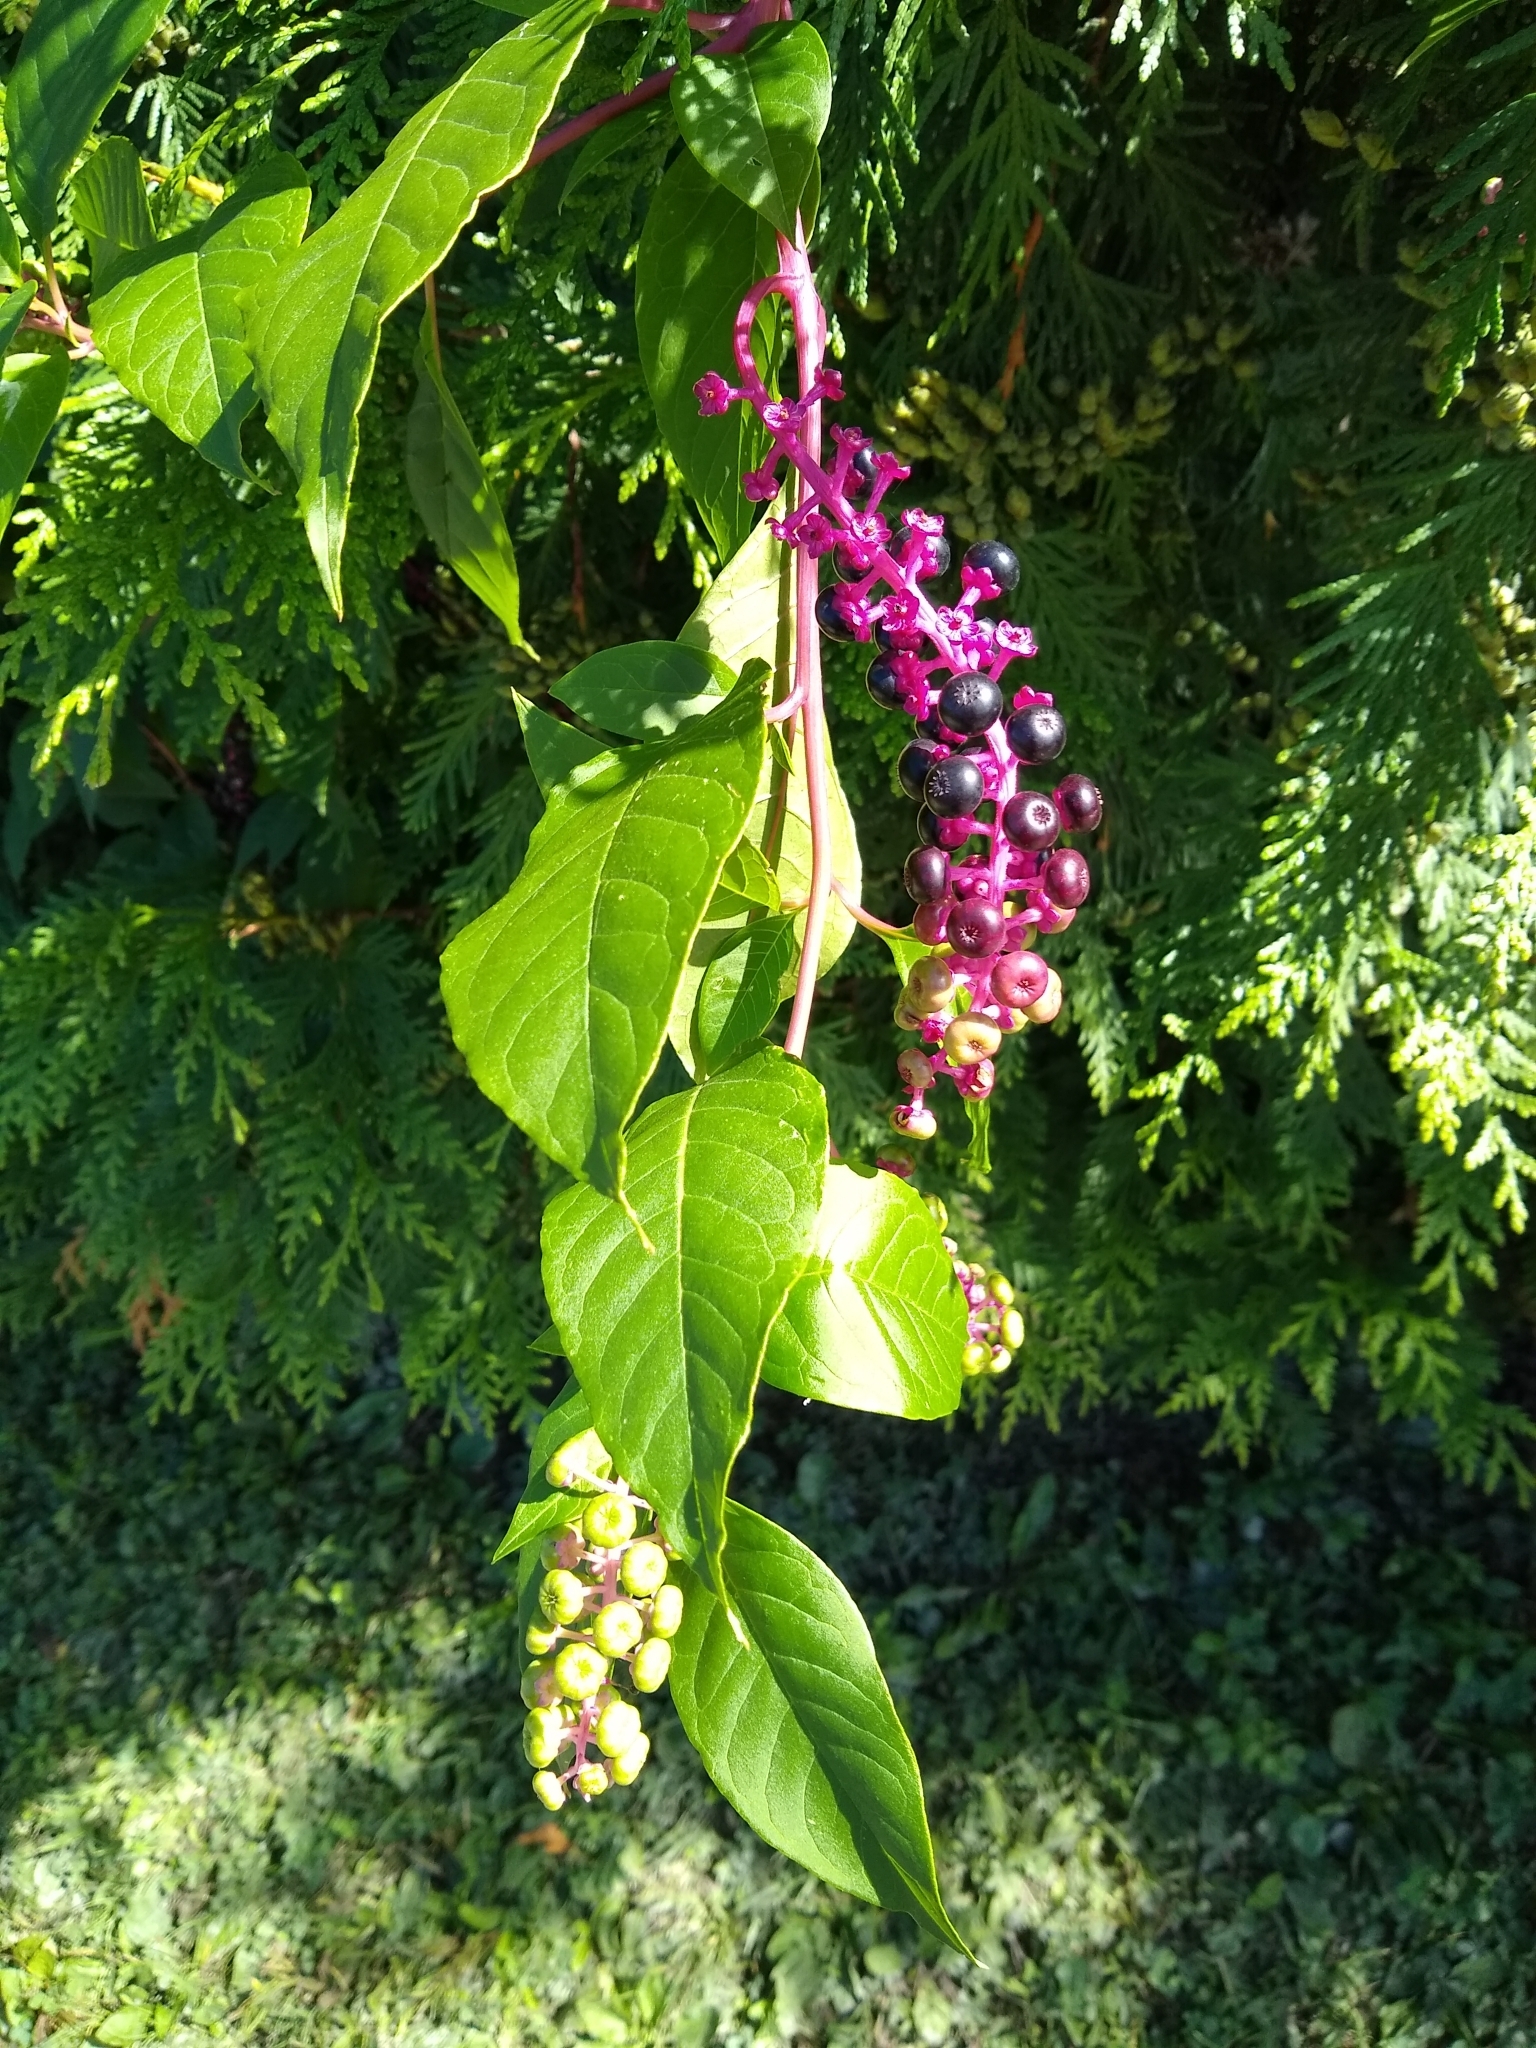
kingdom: Plantae
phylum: Tracheophyta
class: Magnoliopsida
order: Caryophyllales
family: Phytolaccaceae
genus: Phytolacca
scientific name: Phytolacca americana
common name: American pokeweed
